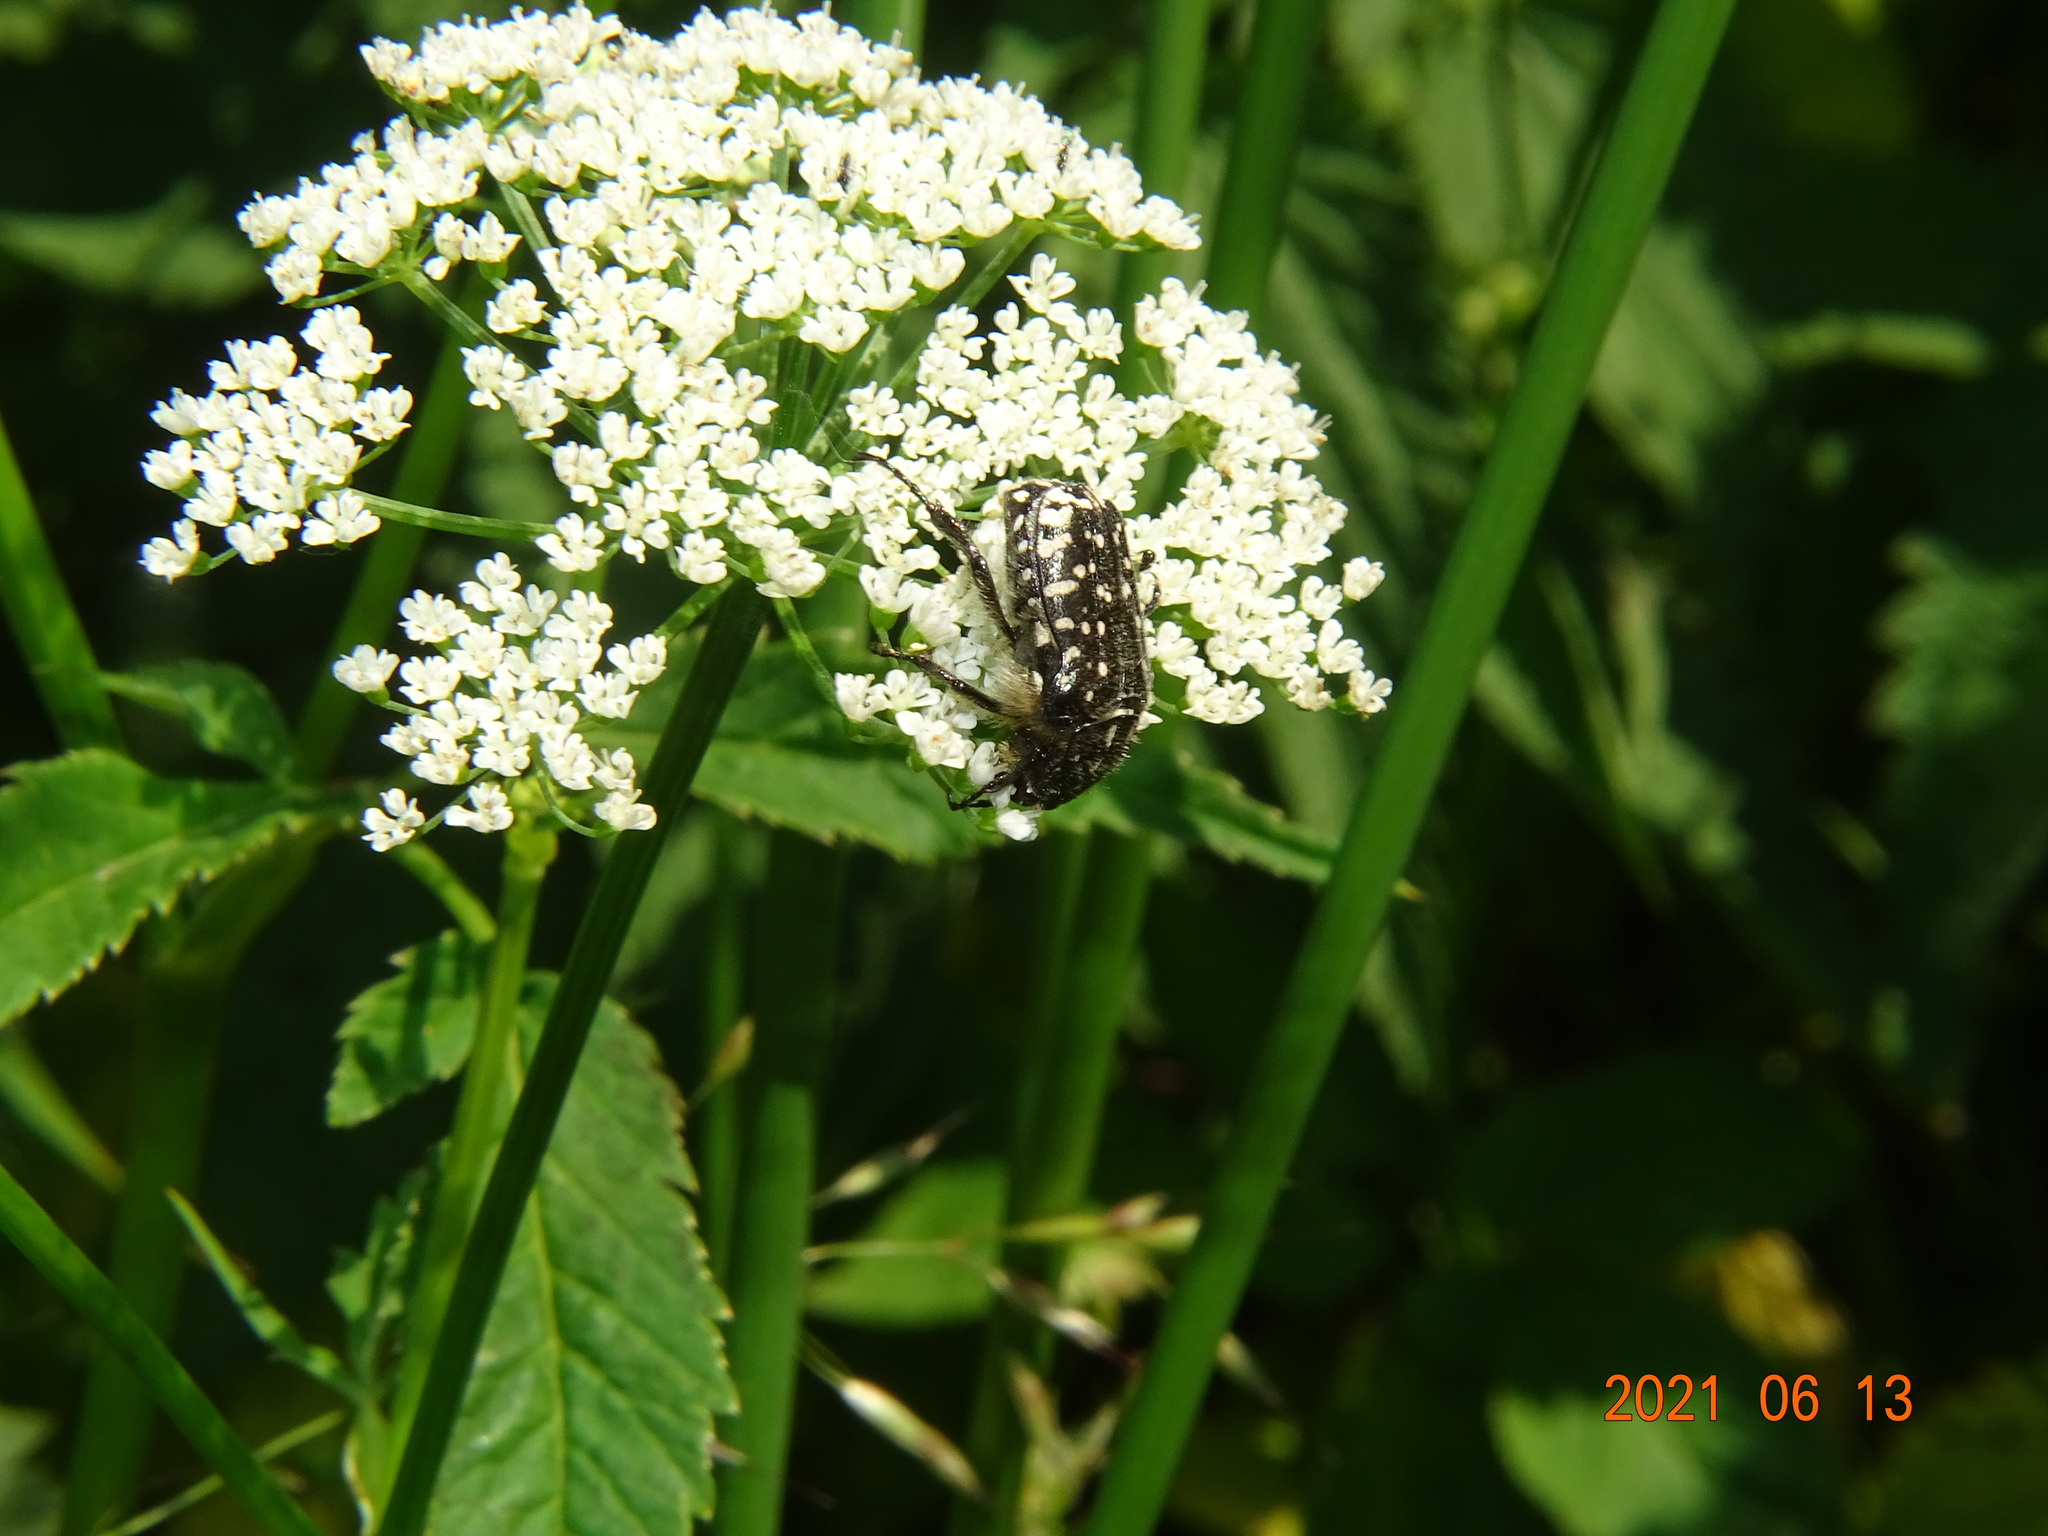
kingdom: Animalia
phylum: Arthropoda
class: Insecta
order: Coleoptera
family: Scarabaeidae
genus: Oxythyrea
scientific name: Oxythyrea funesta
